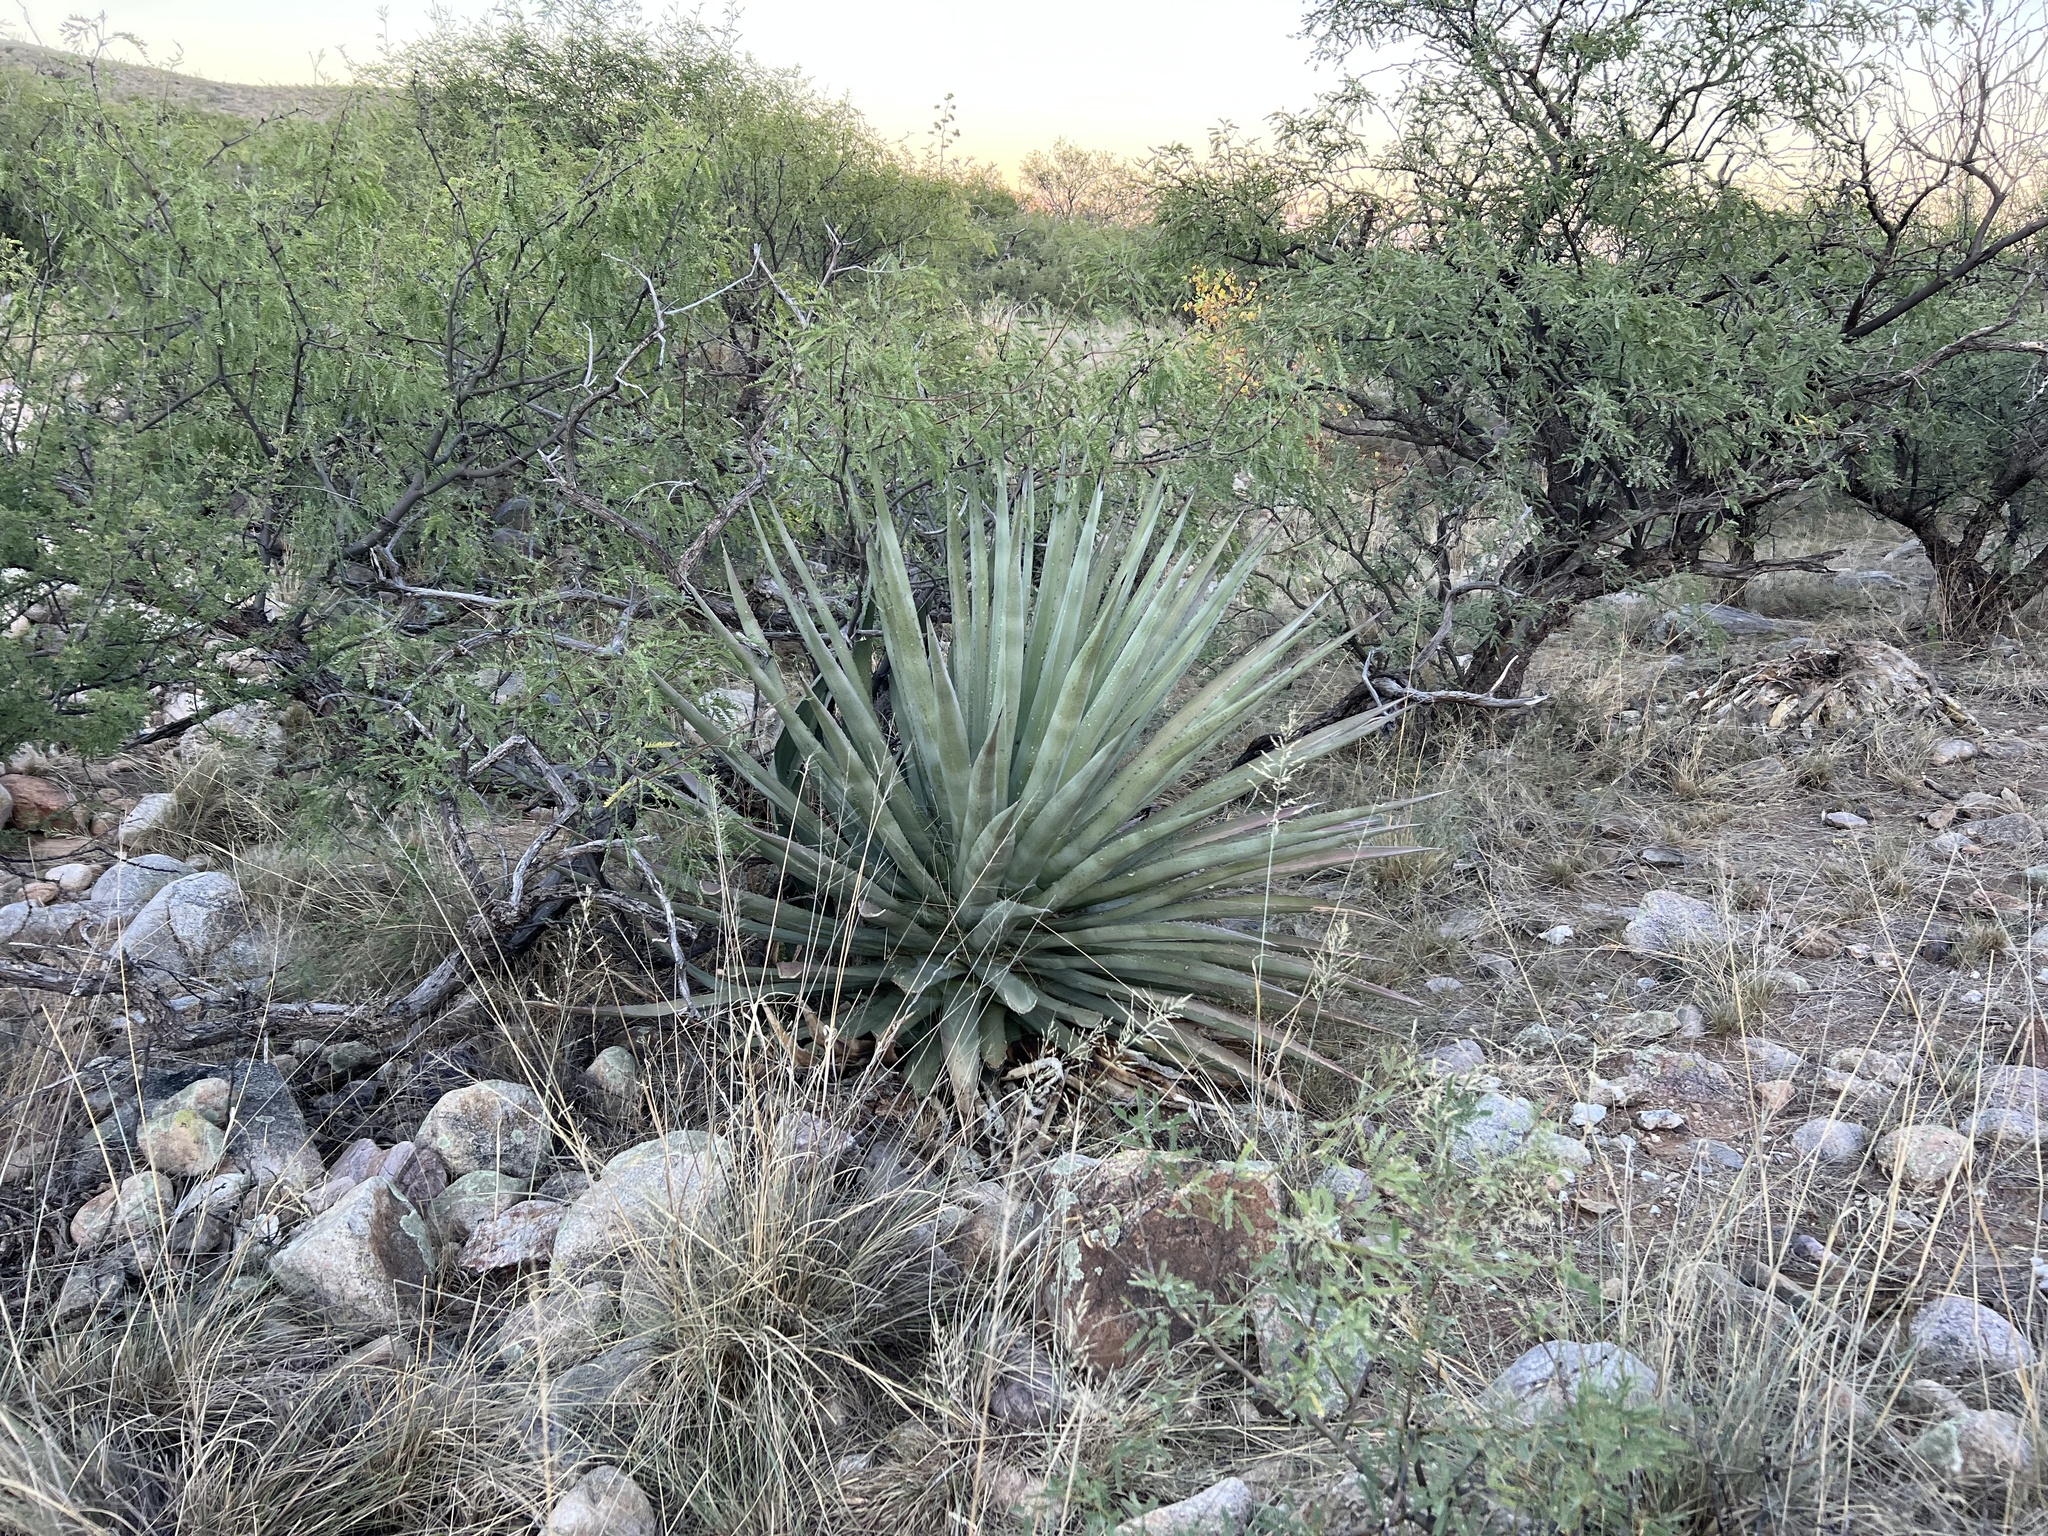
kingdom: Plantae
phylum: Tracheophyta
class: Liliopsida
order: Asparagales
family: Asparagaceae
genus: Agave
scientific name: Agave palmeri
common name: Palmer agave
